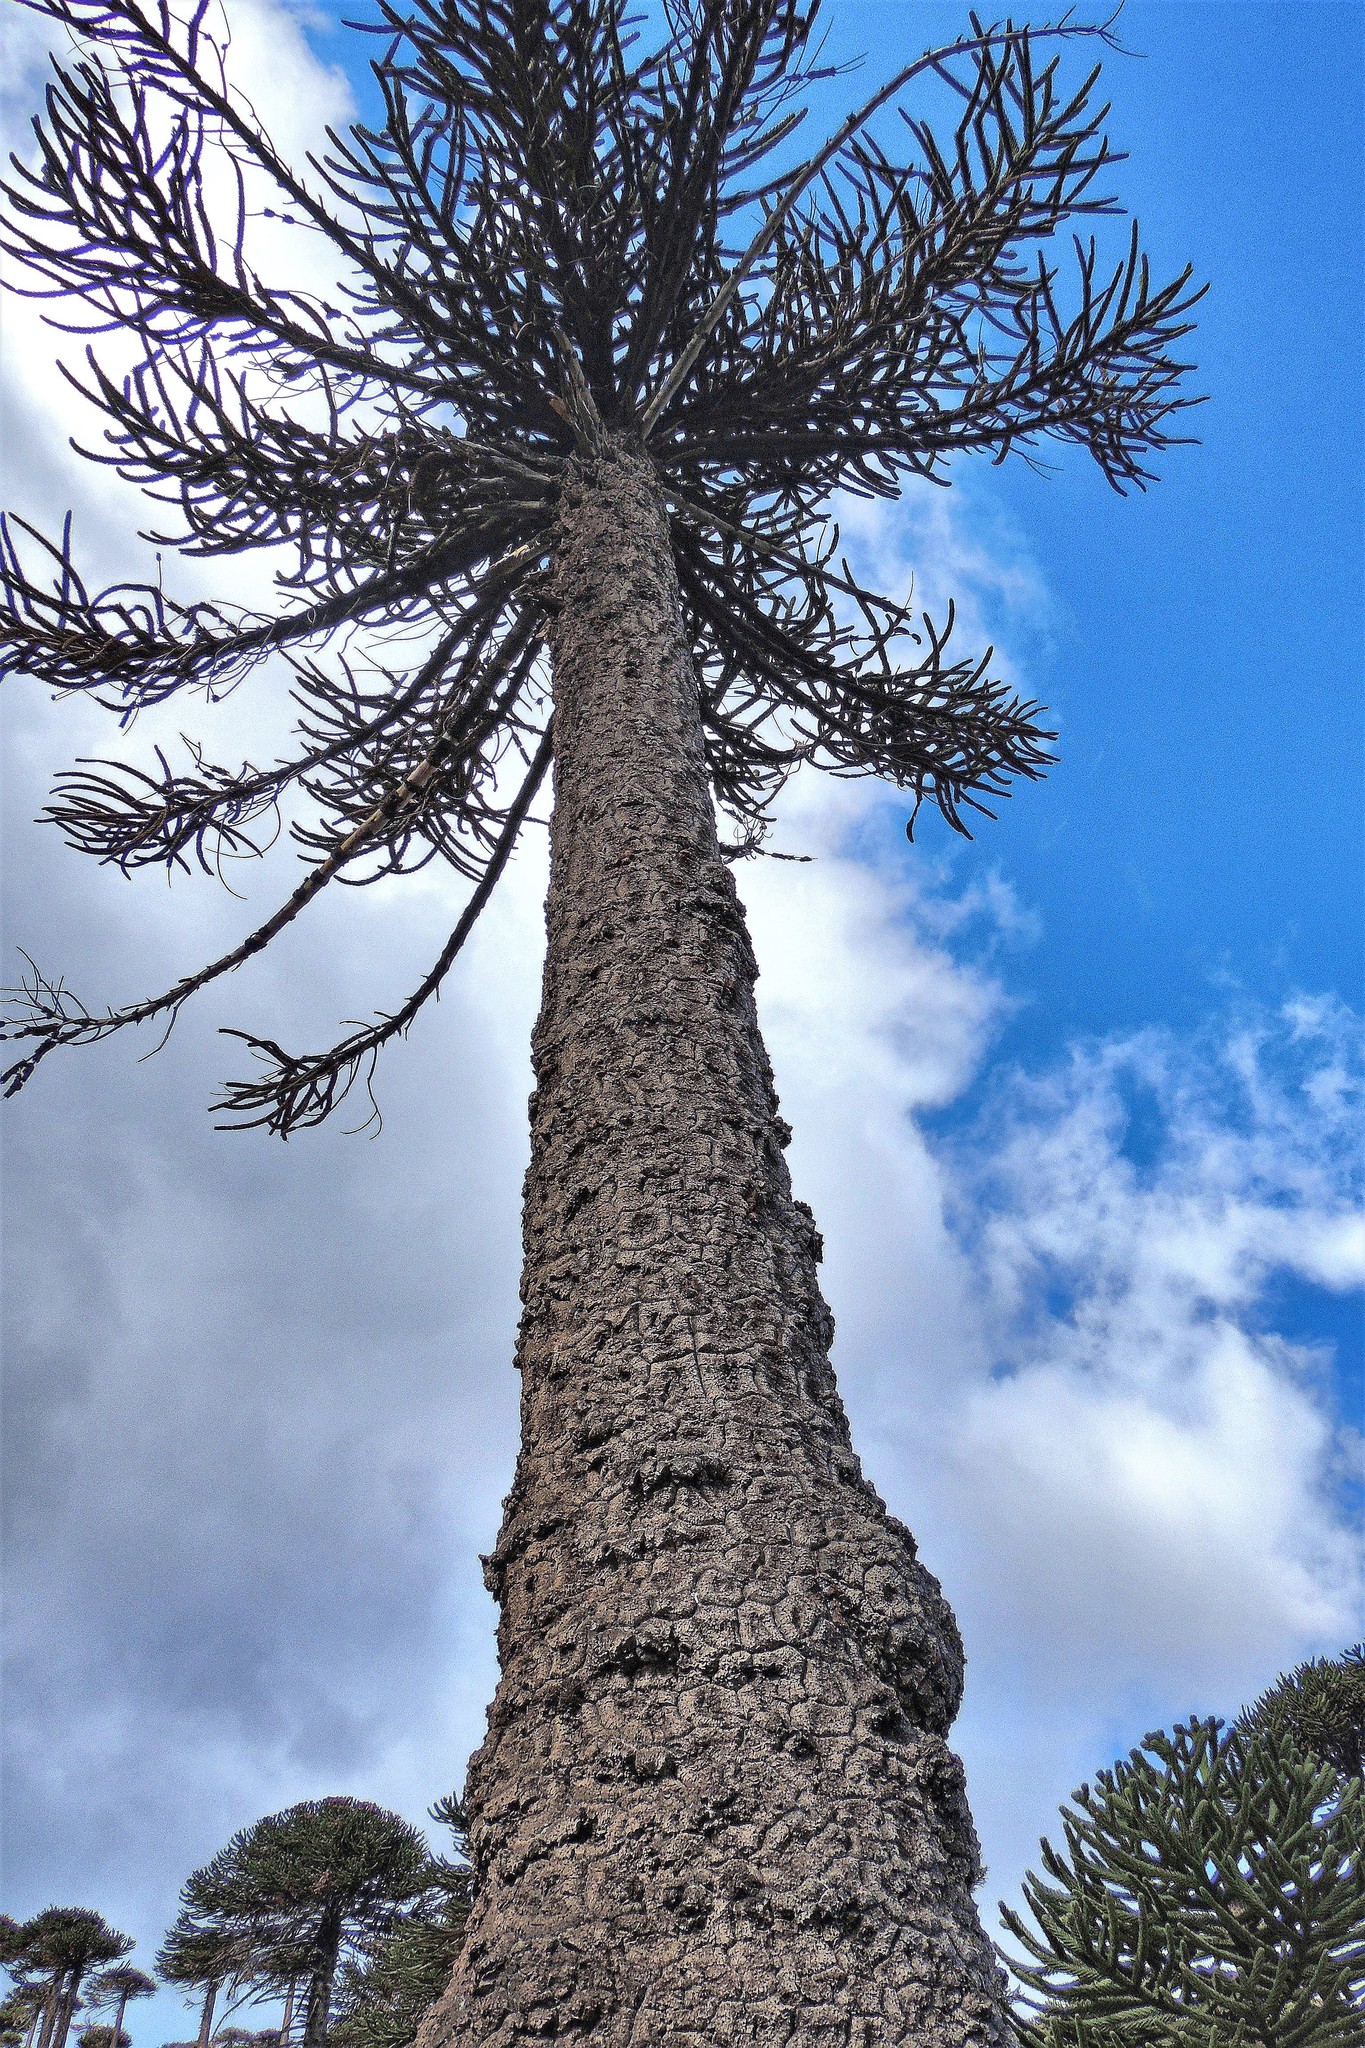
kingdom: Plantae
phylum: Tracheophyta
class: Pinopsida
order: Pinales
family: Araucariaceae
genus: Araucaria
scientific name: Araucaria araucana
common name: Monkey-puzzle
